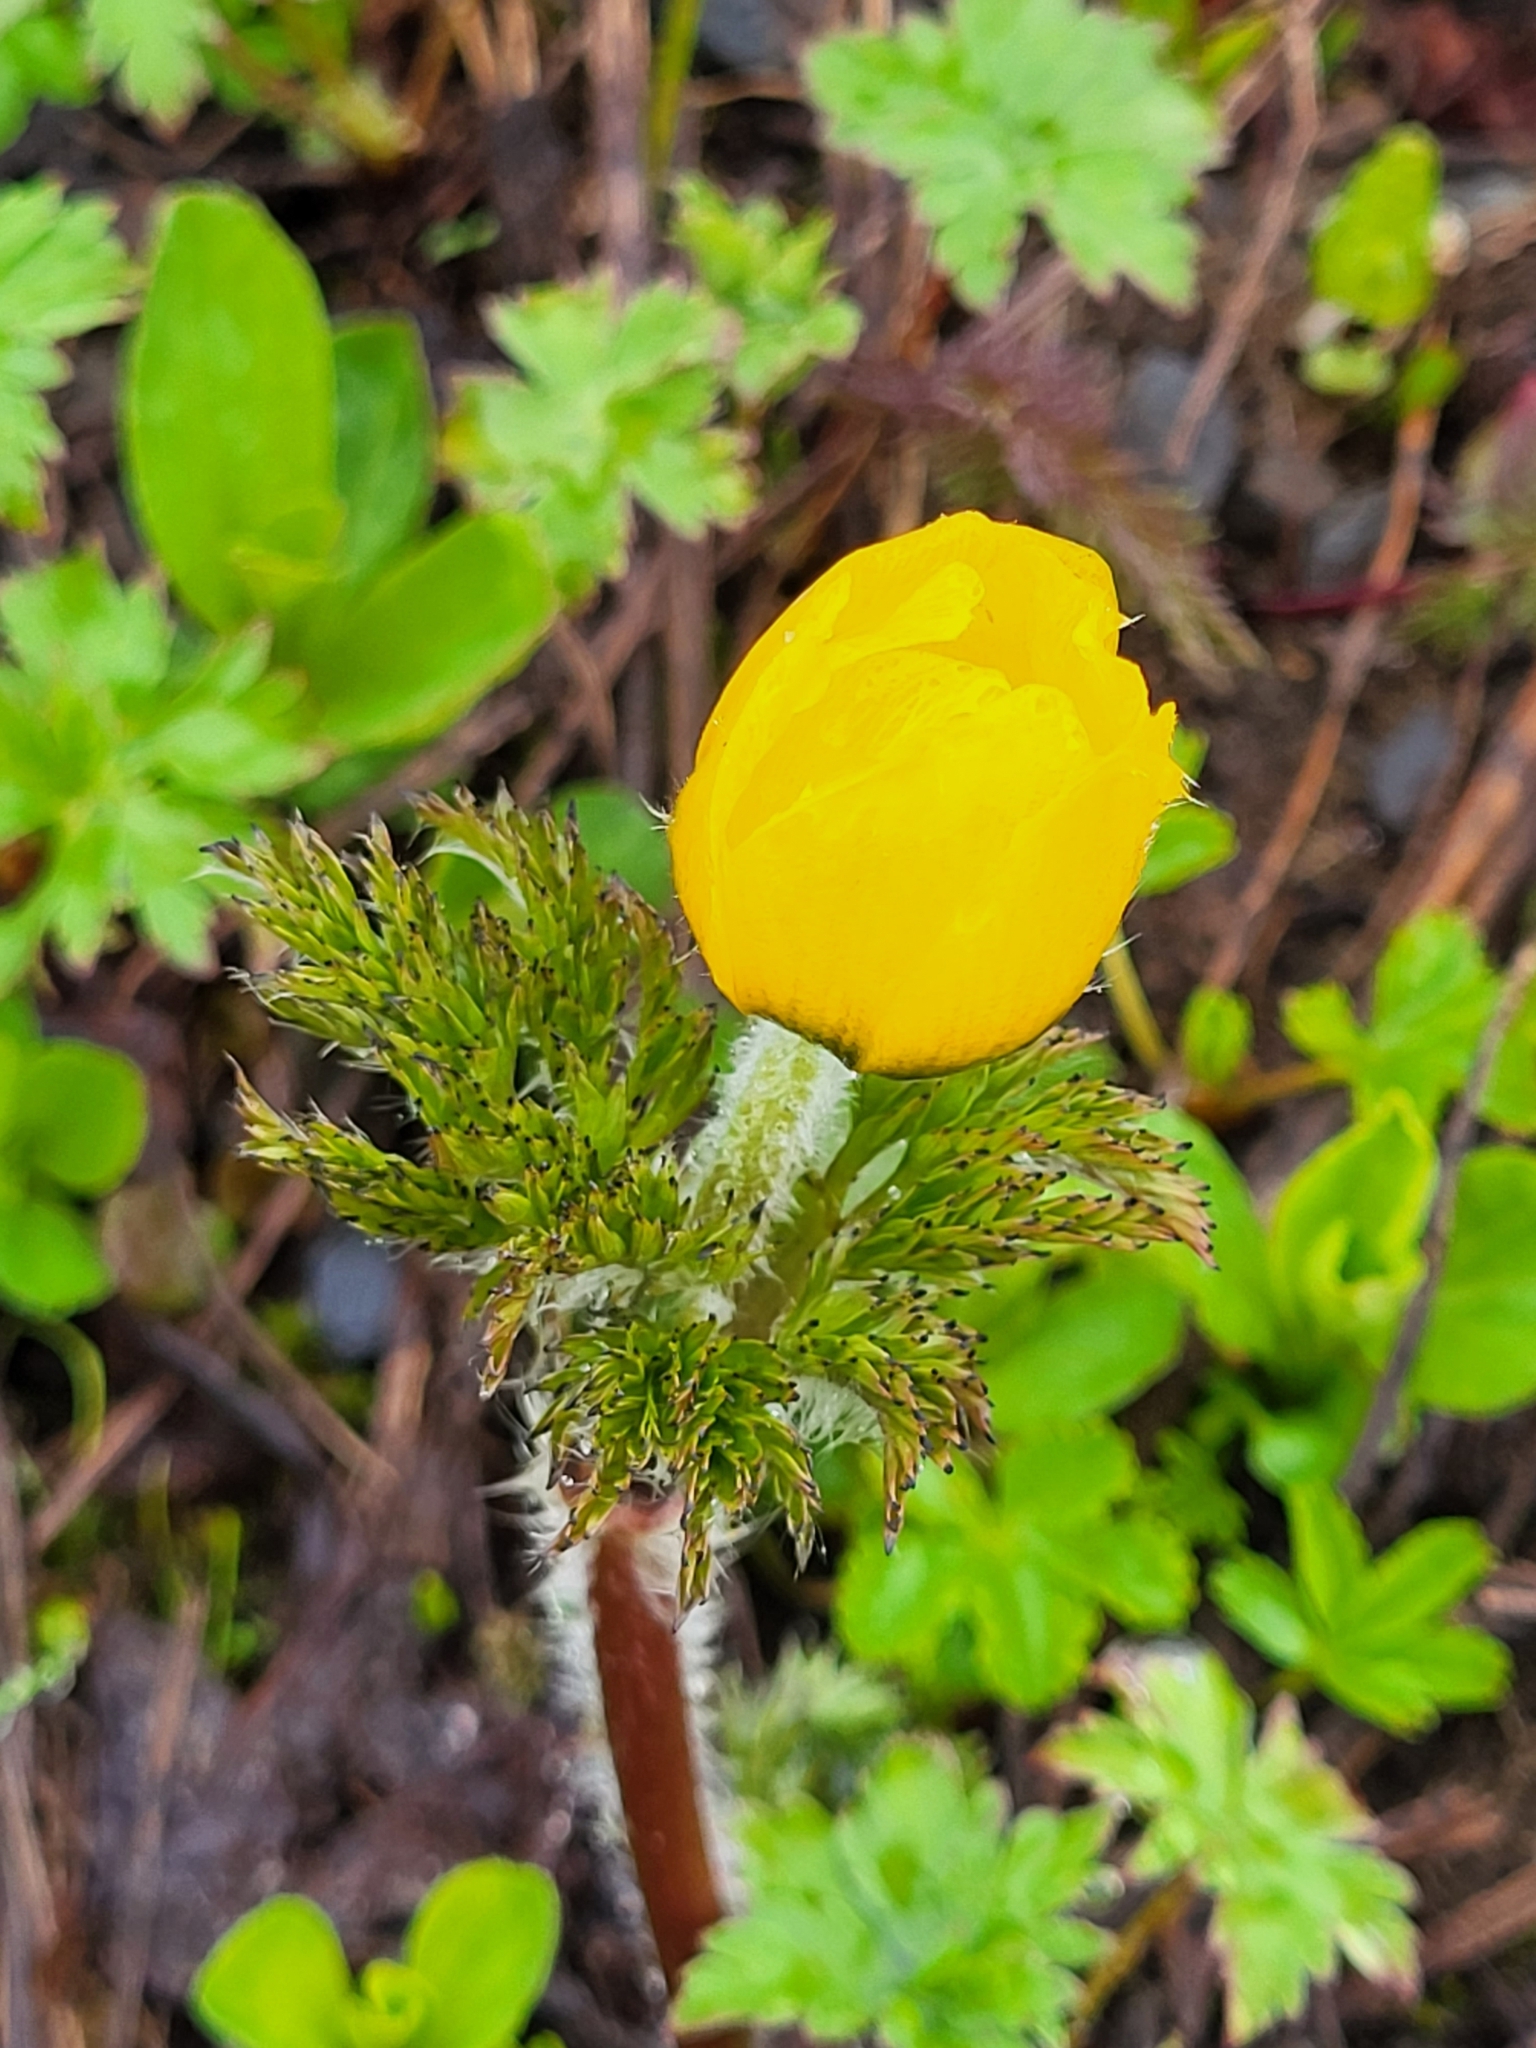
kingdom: Plantae
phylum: Tracheophyta
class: Magnoliopsida
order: Ranunculales
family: Ranunculaceae
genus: Pulsatilla
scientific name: Pulsatilla aurea
